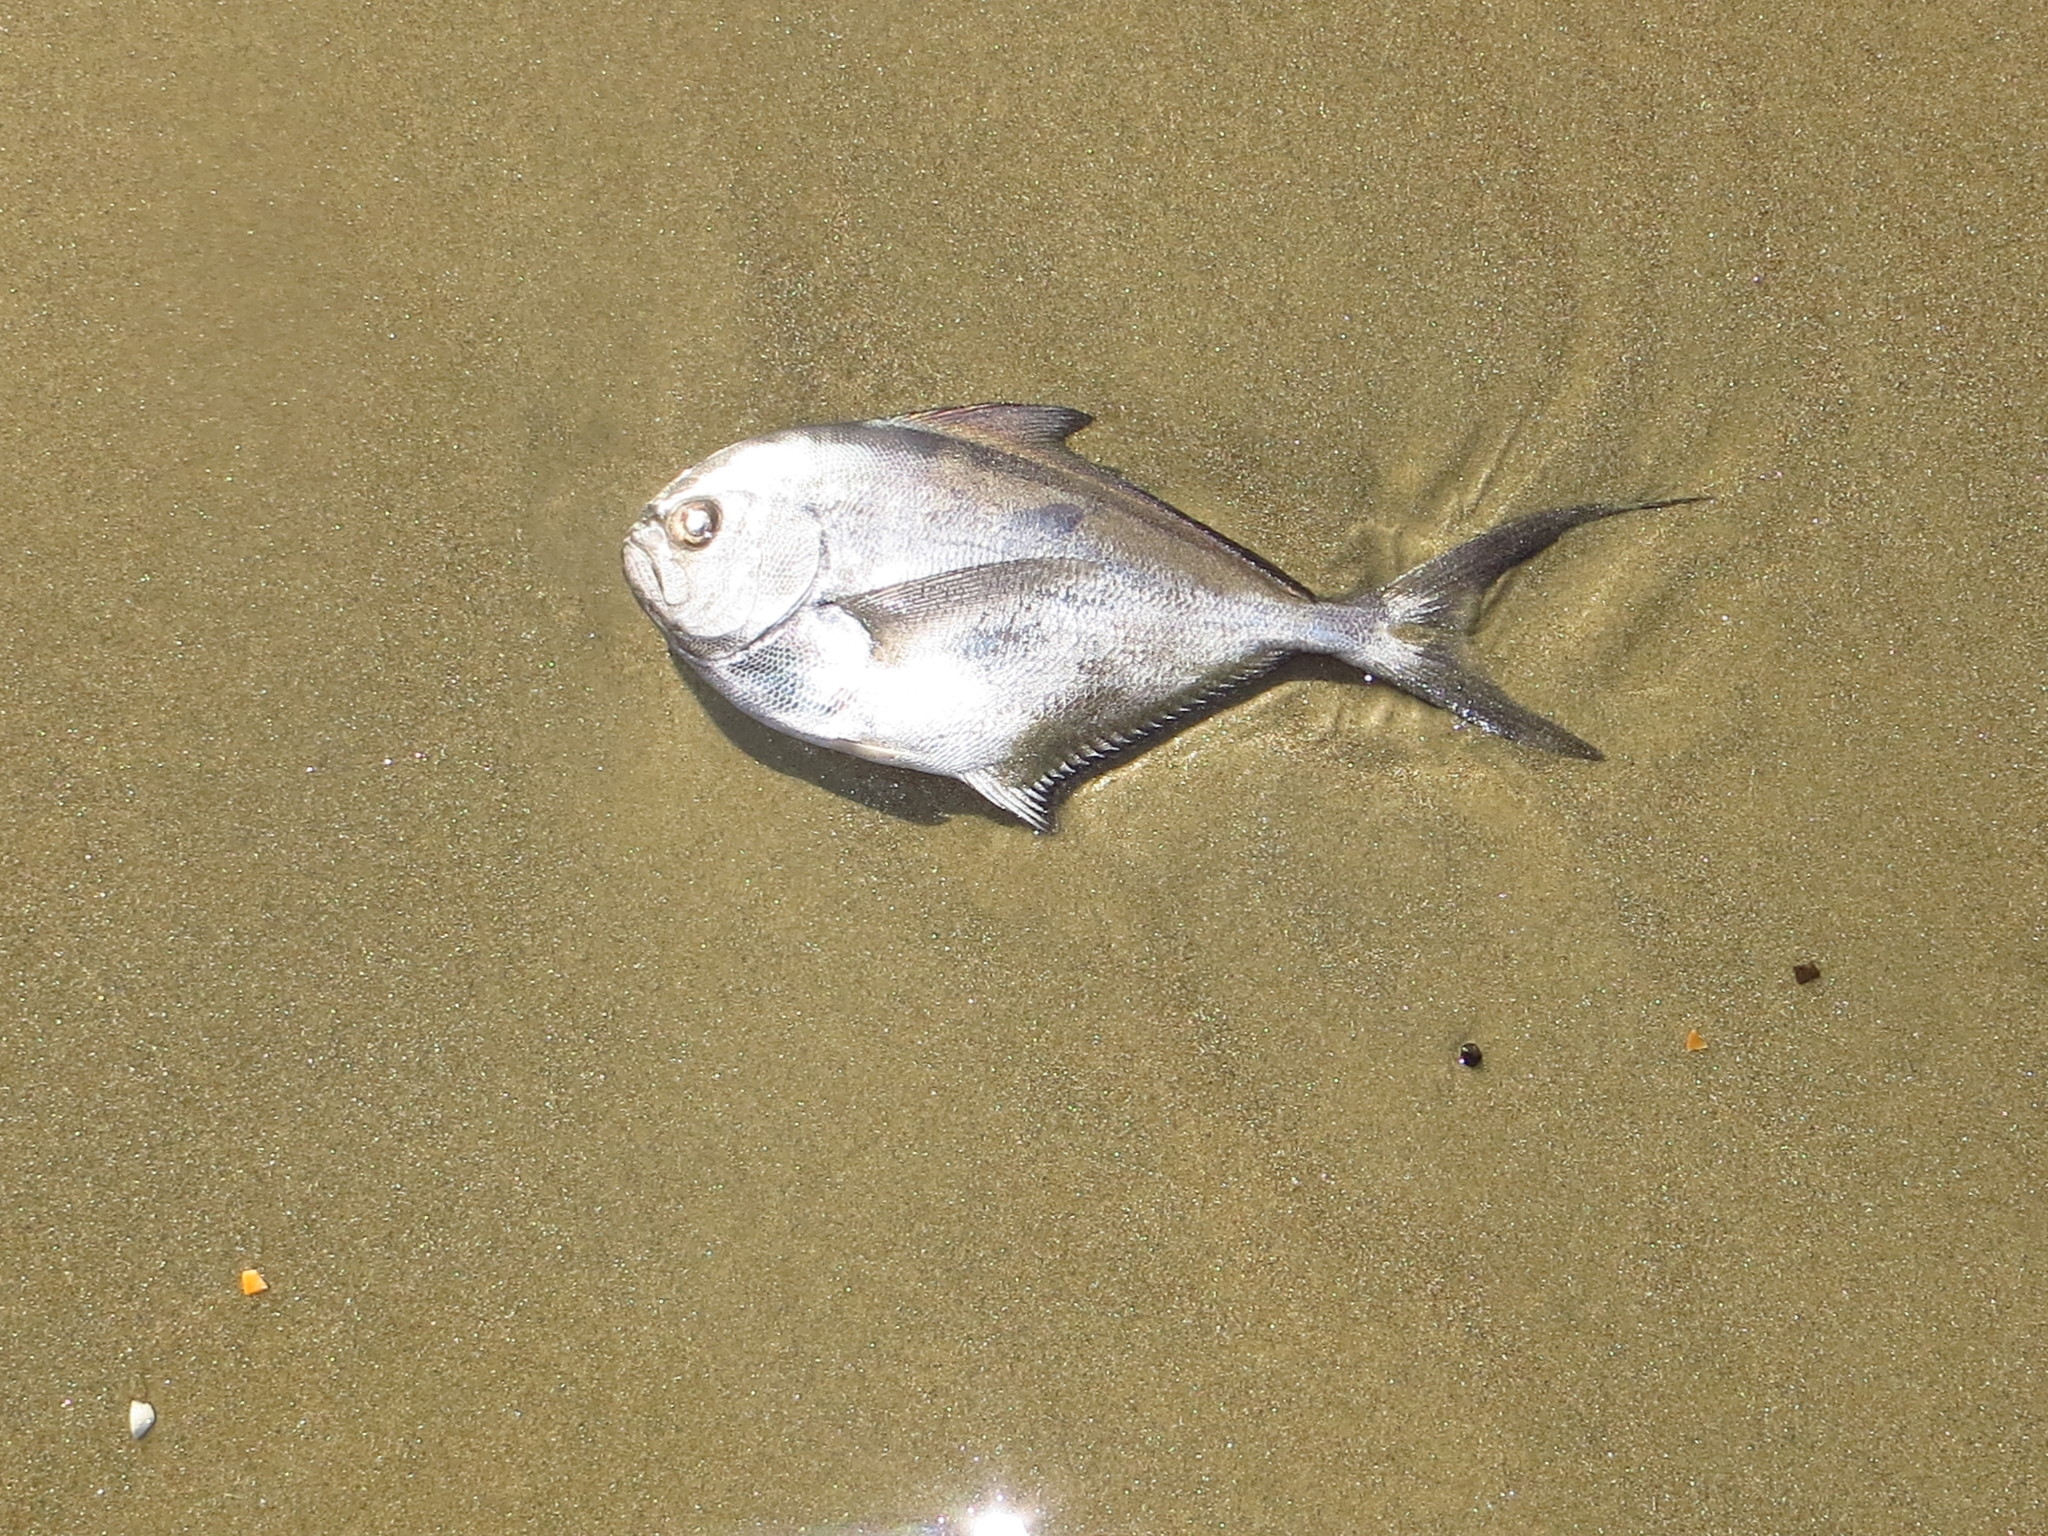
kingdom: Animalia
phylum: Chordata
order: Perciformes
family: Bramidae
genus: Brama
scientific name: Brama australis
